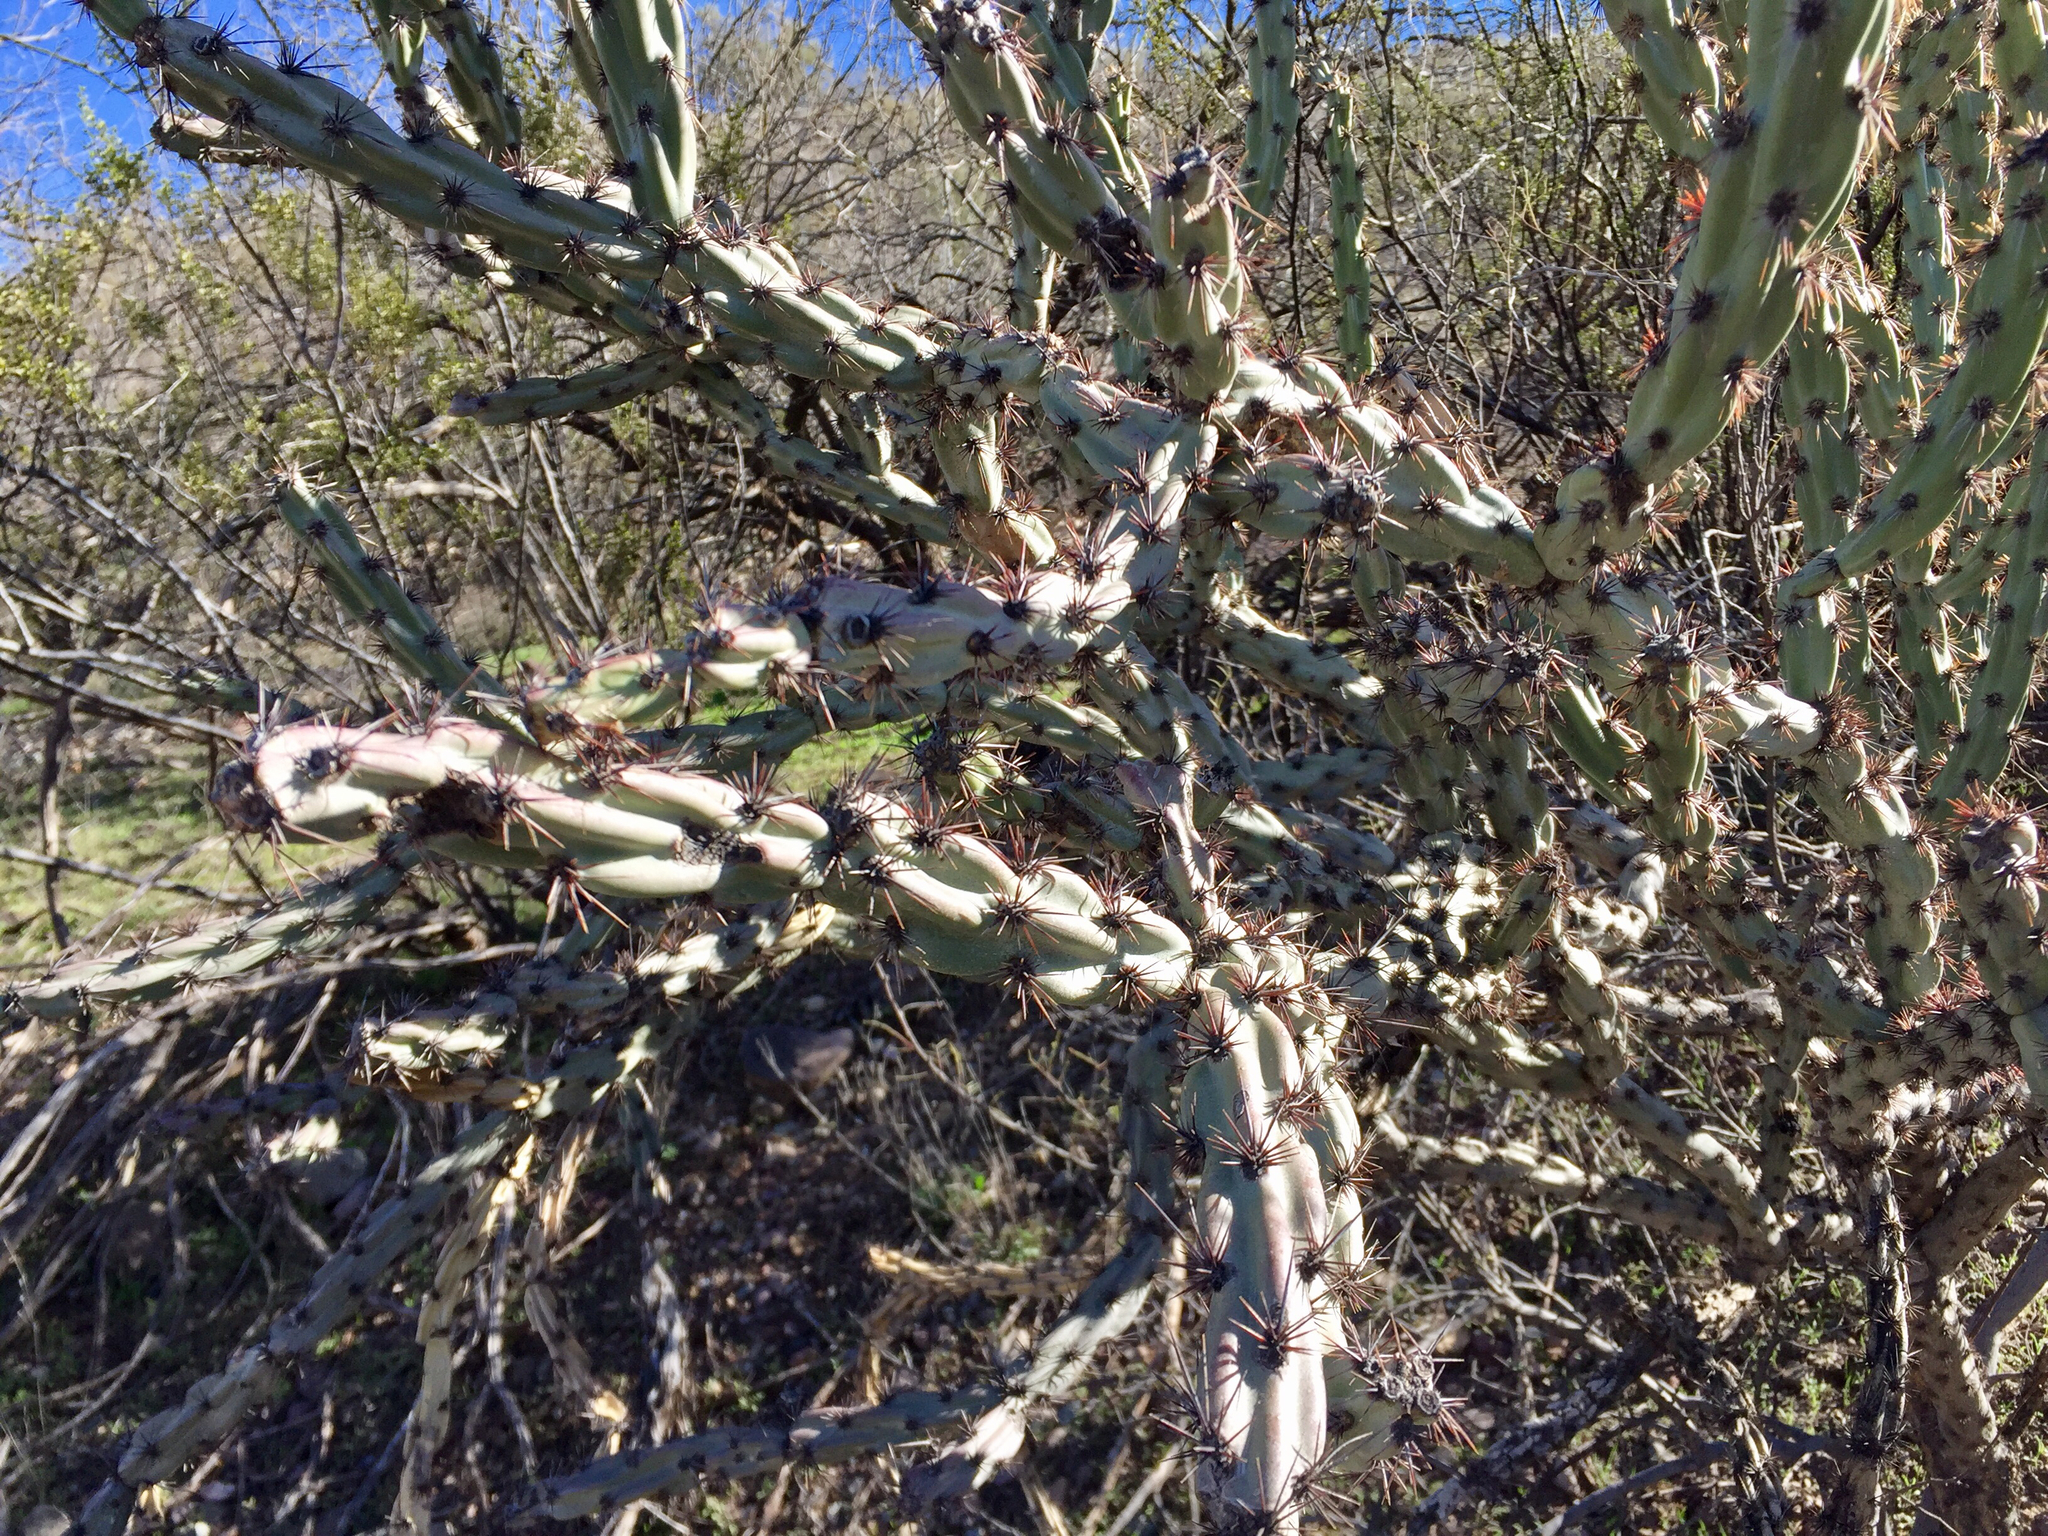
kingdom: Plantae
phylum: Tracheophyta
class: Magnoliopsida
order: Caryophyllales
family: Cactaceae
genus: Cylindropuntia
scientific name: Cylindropuntia acanthocarpa
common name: Buckhorn cholla
